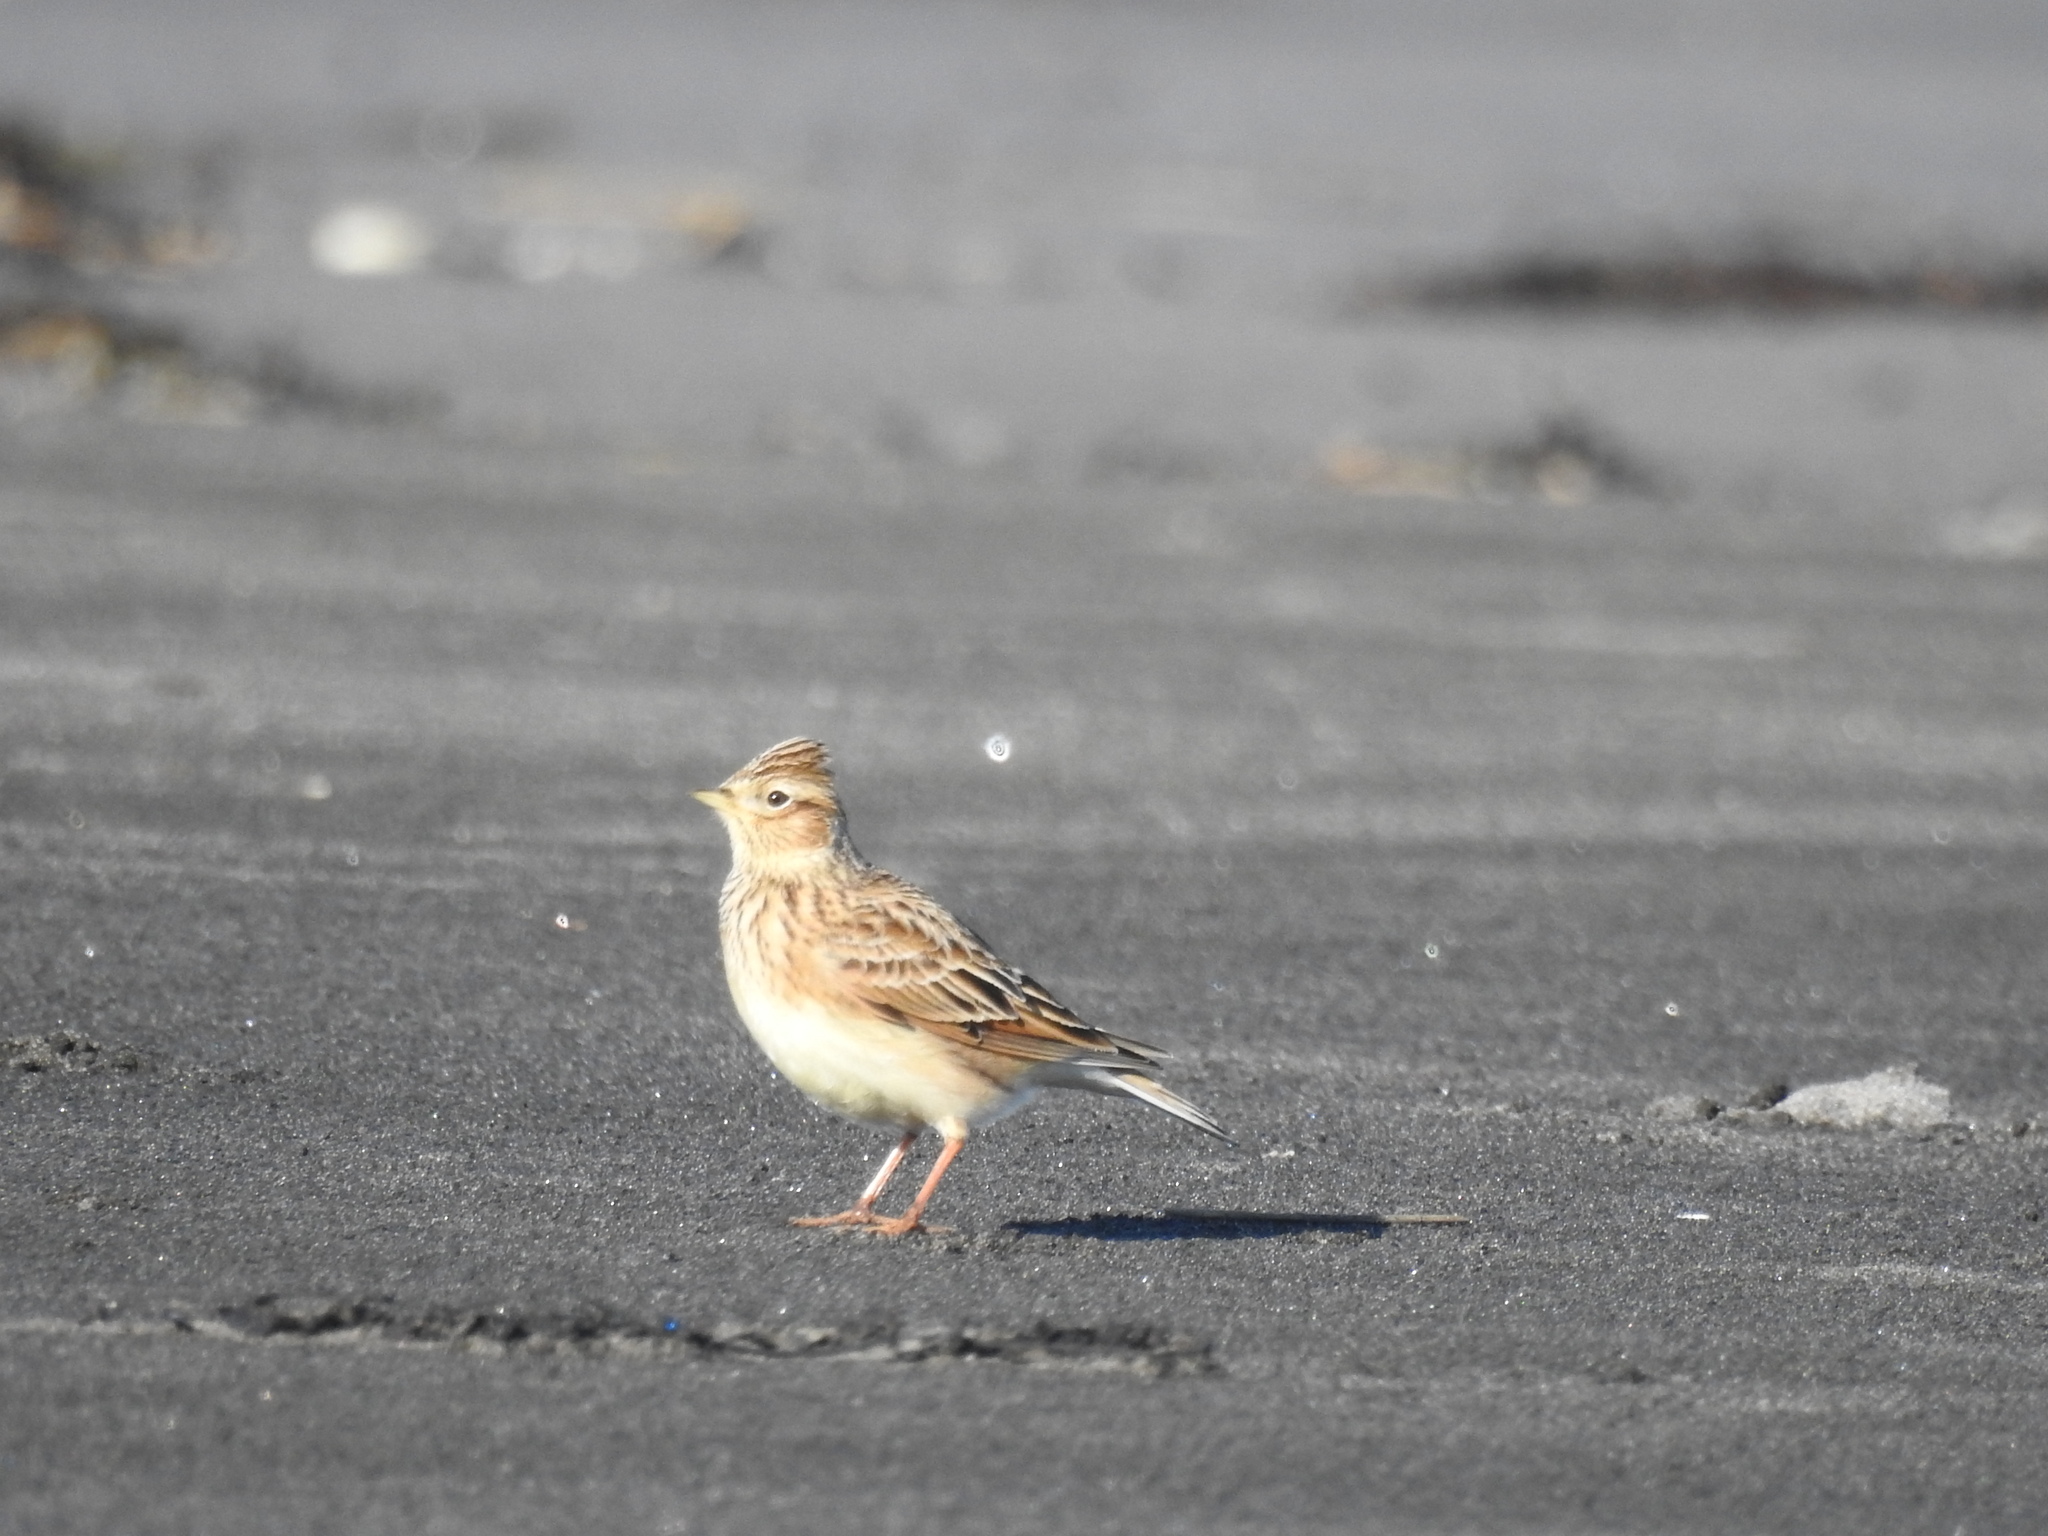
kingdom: Animalia
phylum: Chordata
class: Aves
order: Passeriformes
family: Alaudidae
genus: Alauda
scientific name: Alauda arvensis
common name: Eurasian skylark
